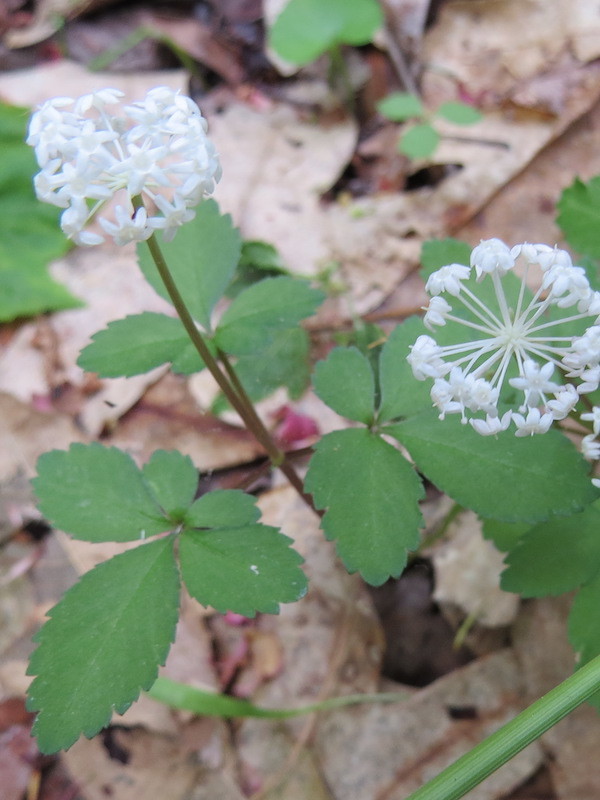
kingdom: Plantae
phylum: Tracheophyta
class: Magnoliopsida
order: Apiales
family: Araliaceae
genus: Panax
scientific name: Panax trifolius
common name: Dwarf ginseng
